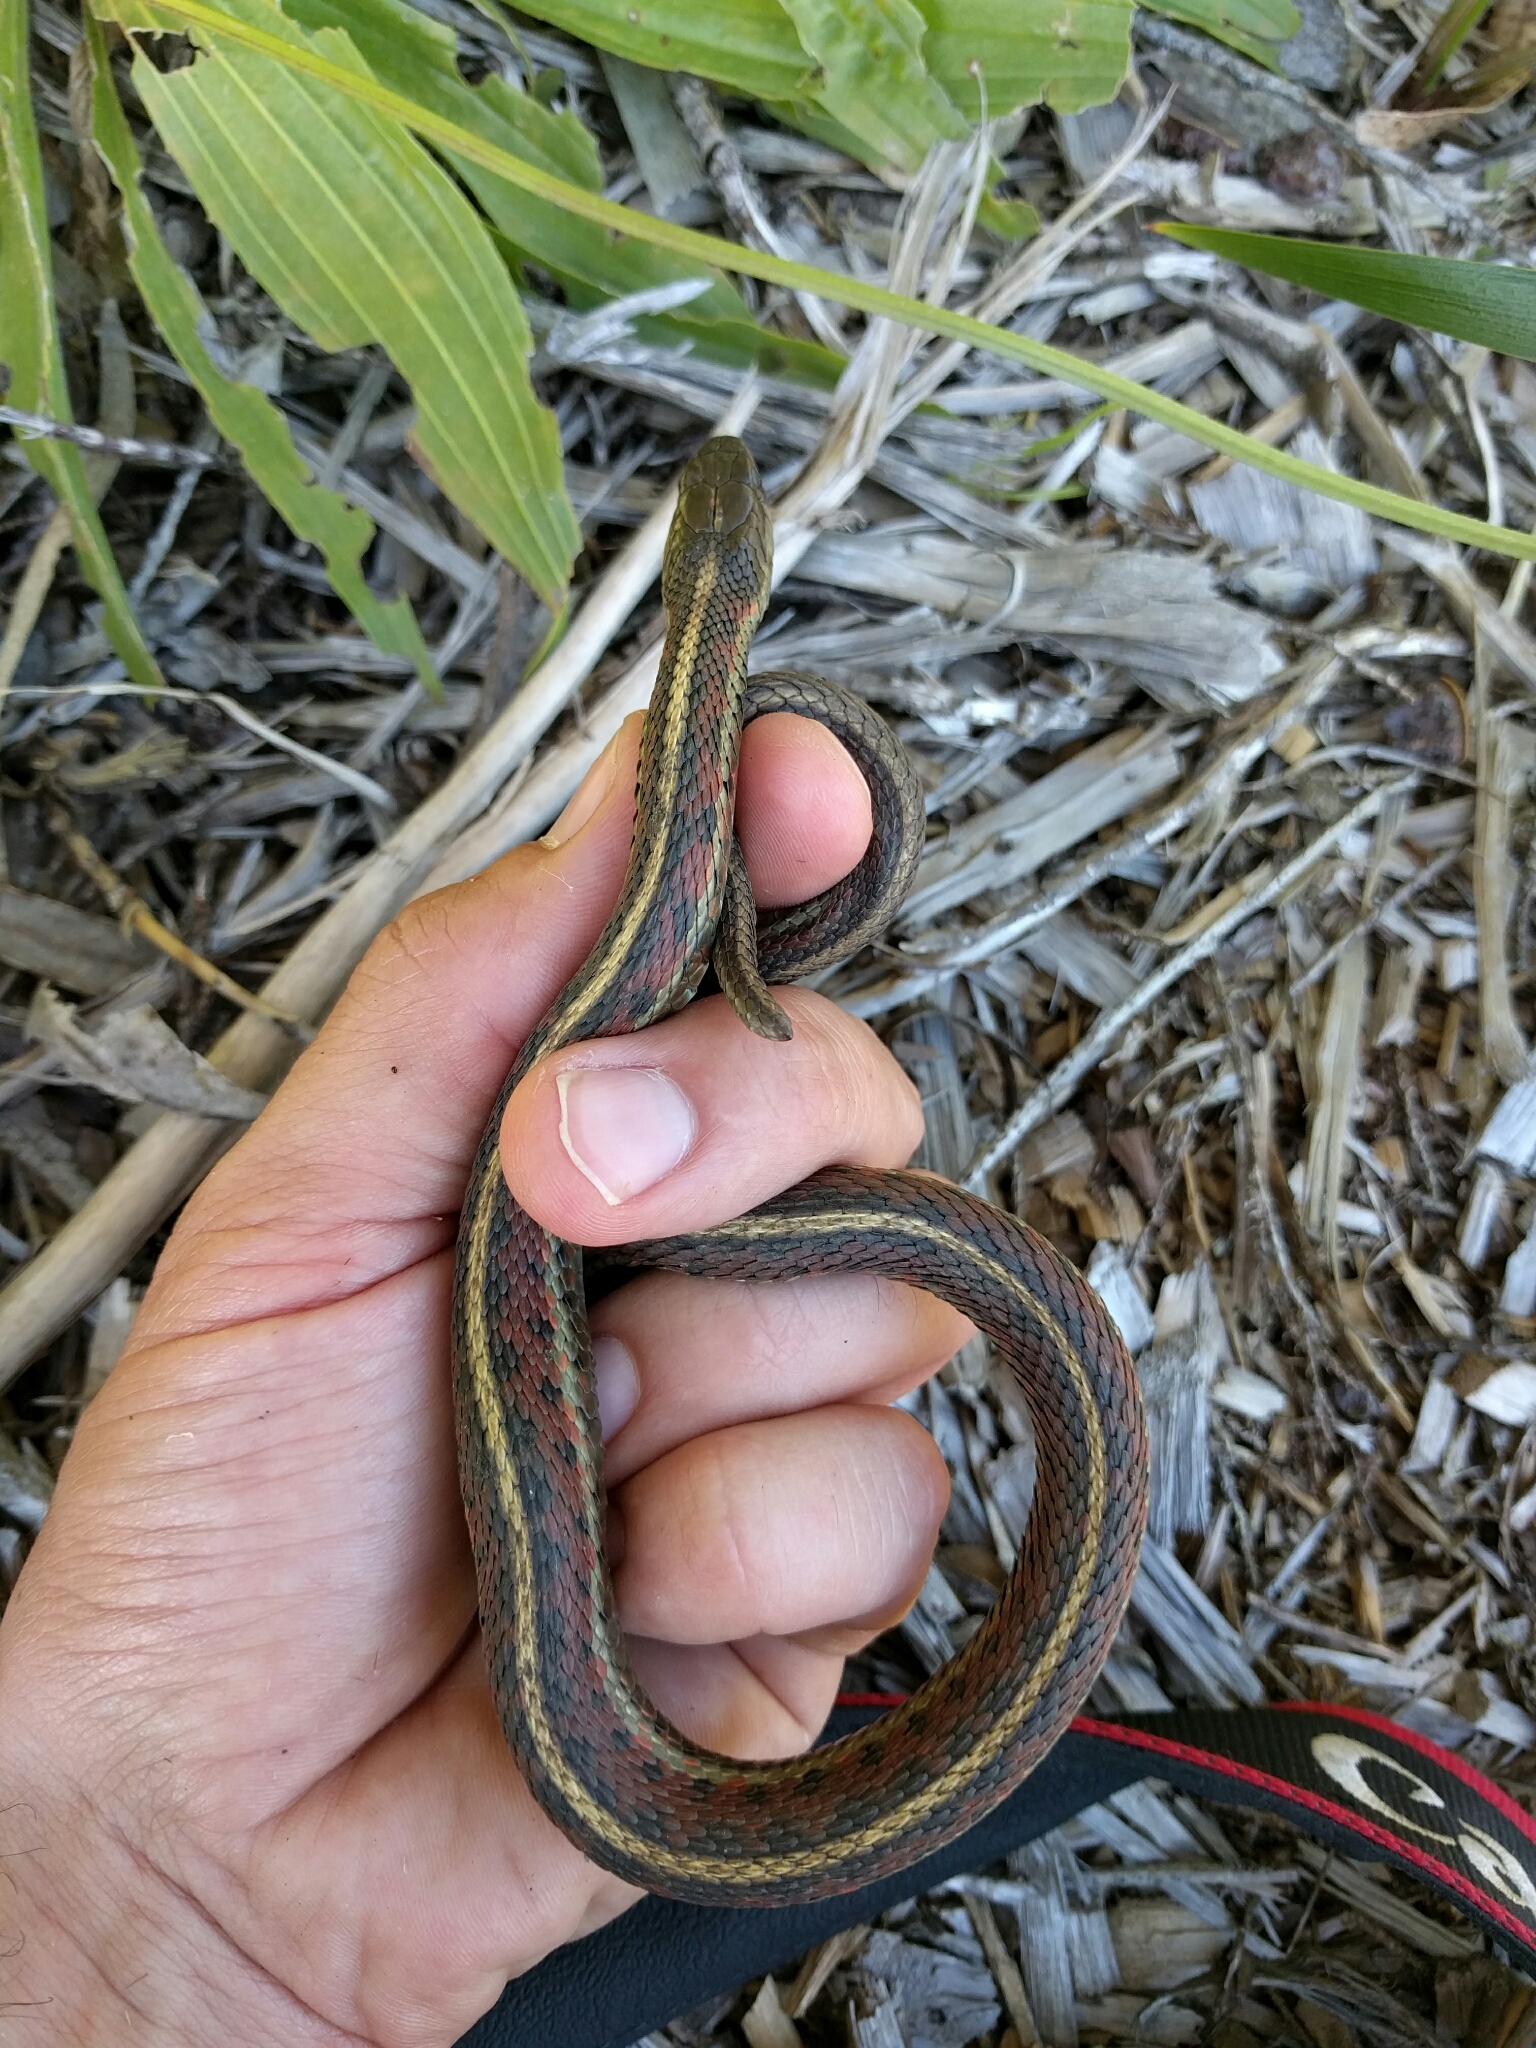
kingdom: Animalia
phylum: Chordata
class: Squamata
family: Colubridae
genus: Thamnophis
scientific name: Thamnophis elegans
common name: Western terrestrial garter snake
